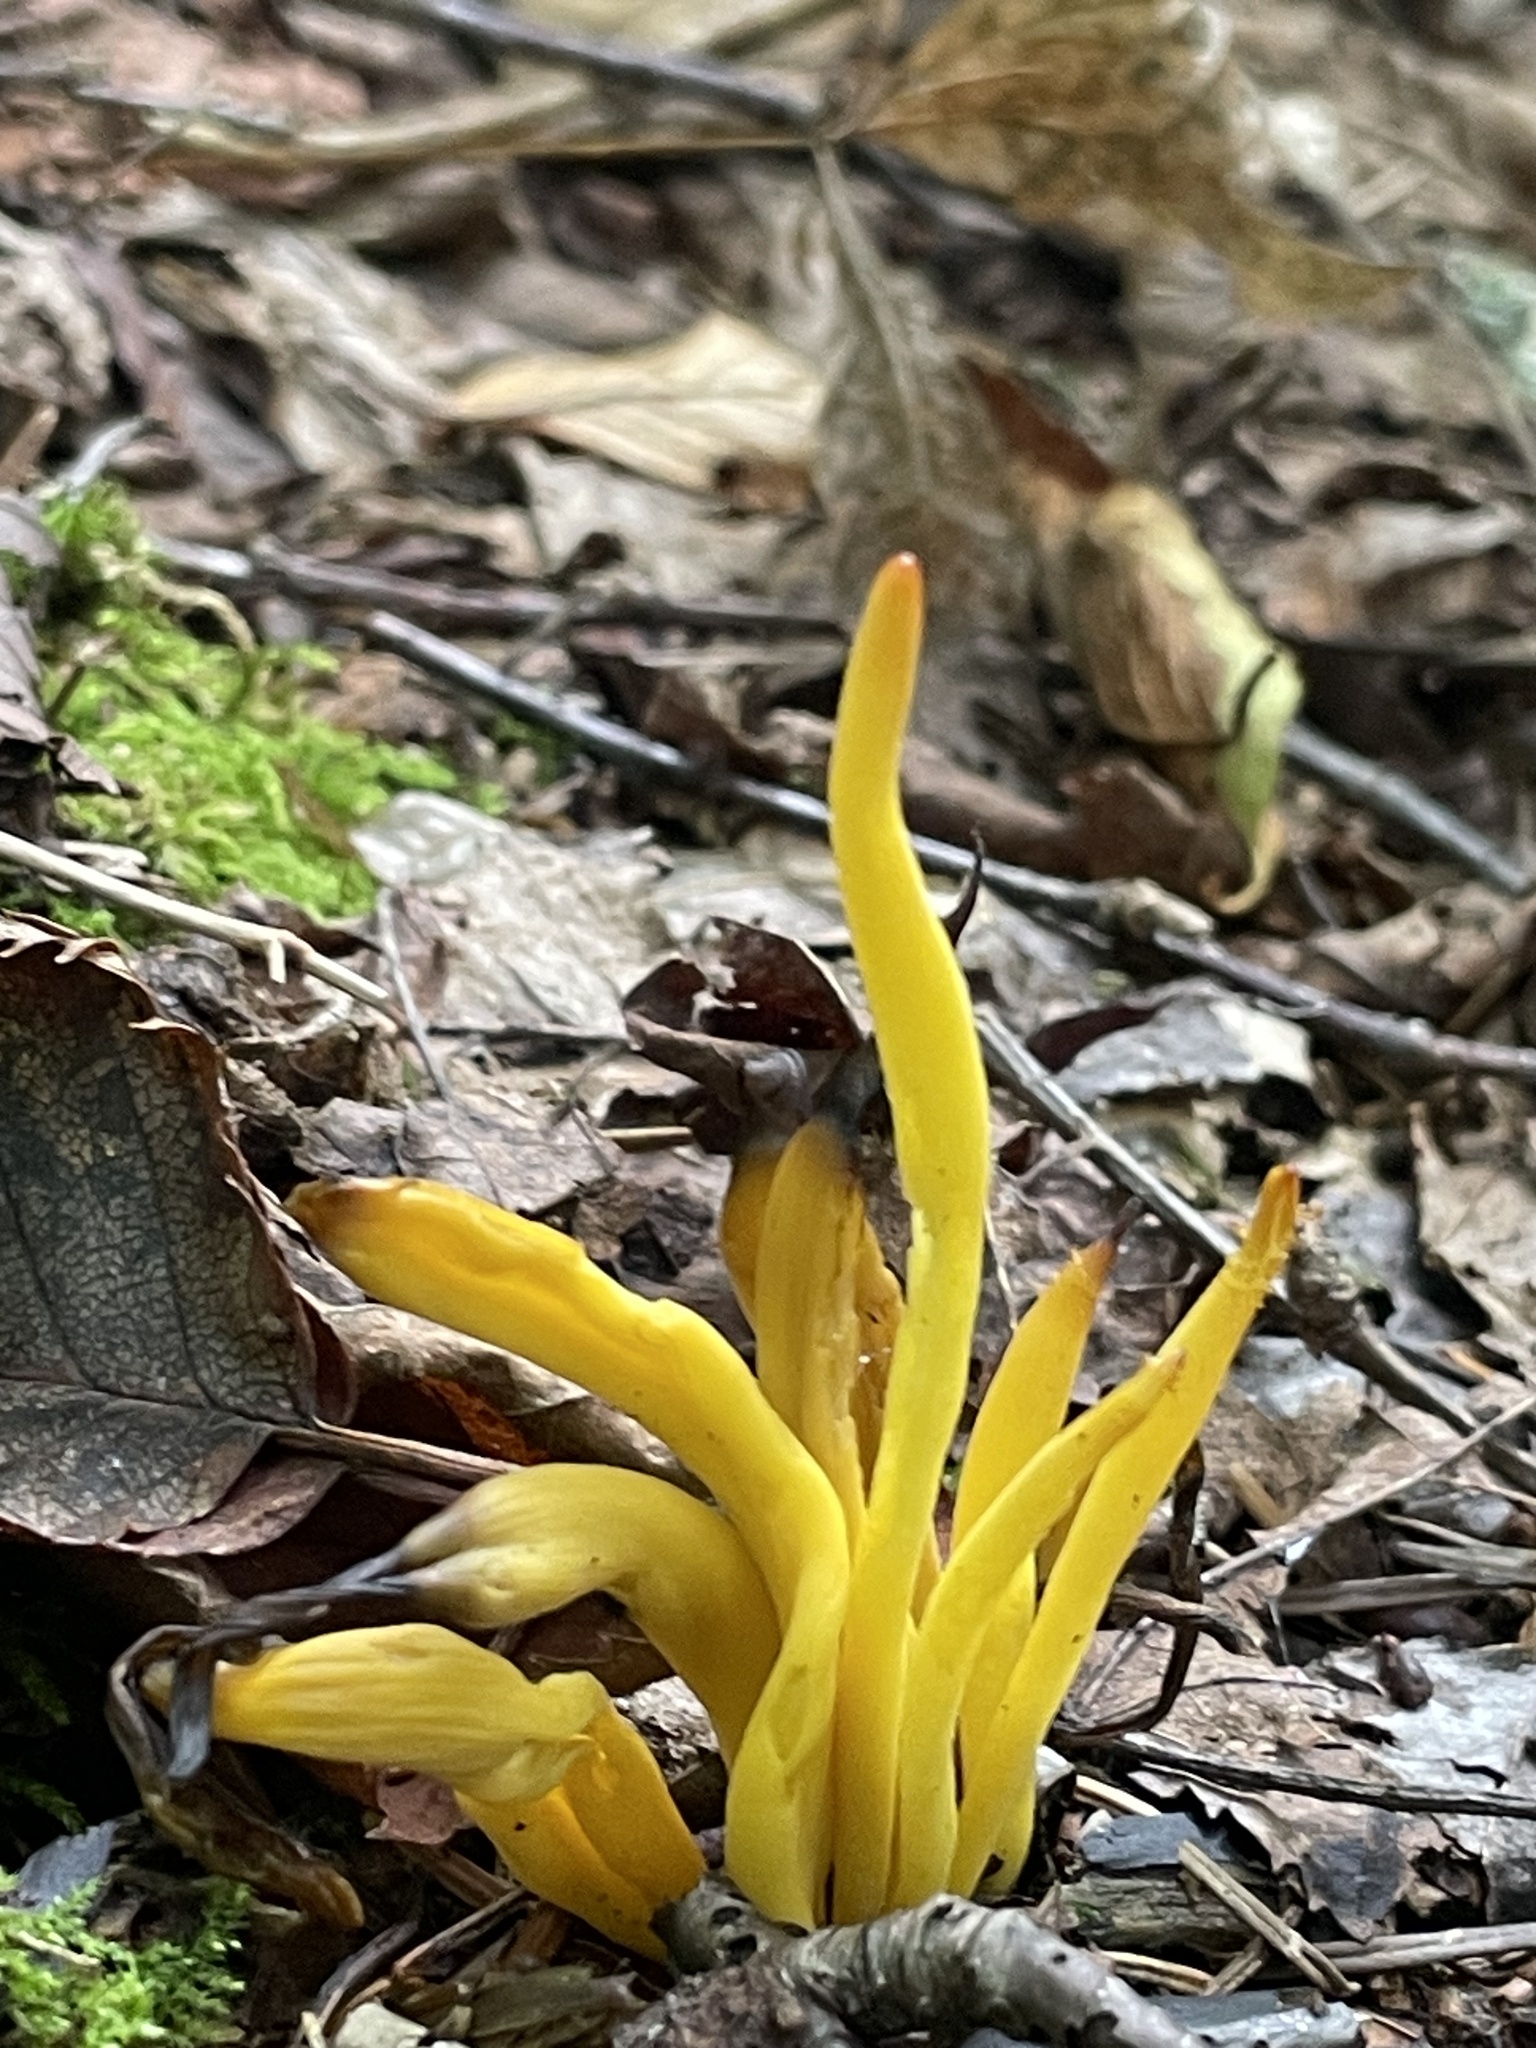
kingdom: Fungi
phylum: Basidiomycota
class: Agaricomycetes
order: Agaricales
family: Clavariaceae
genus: Clavulinopsis
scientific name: Clavulinopsis fusiformis
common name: Golden spindles
